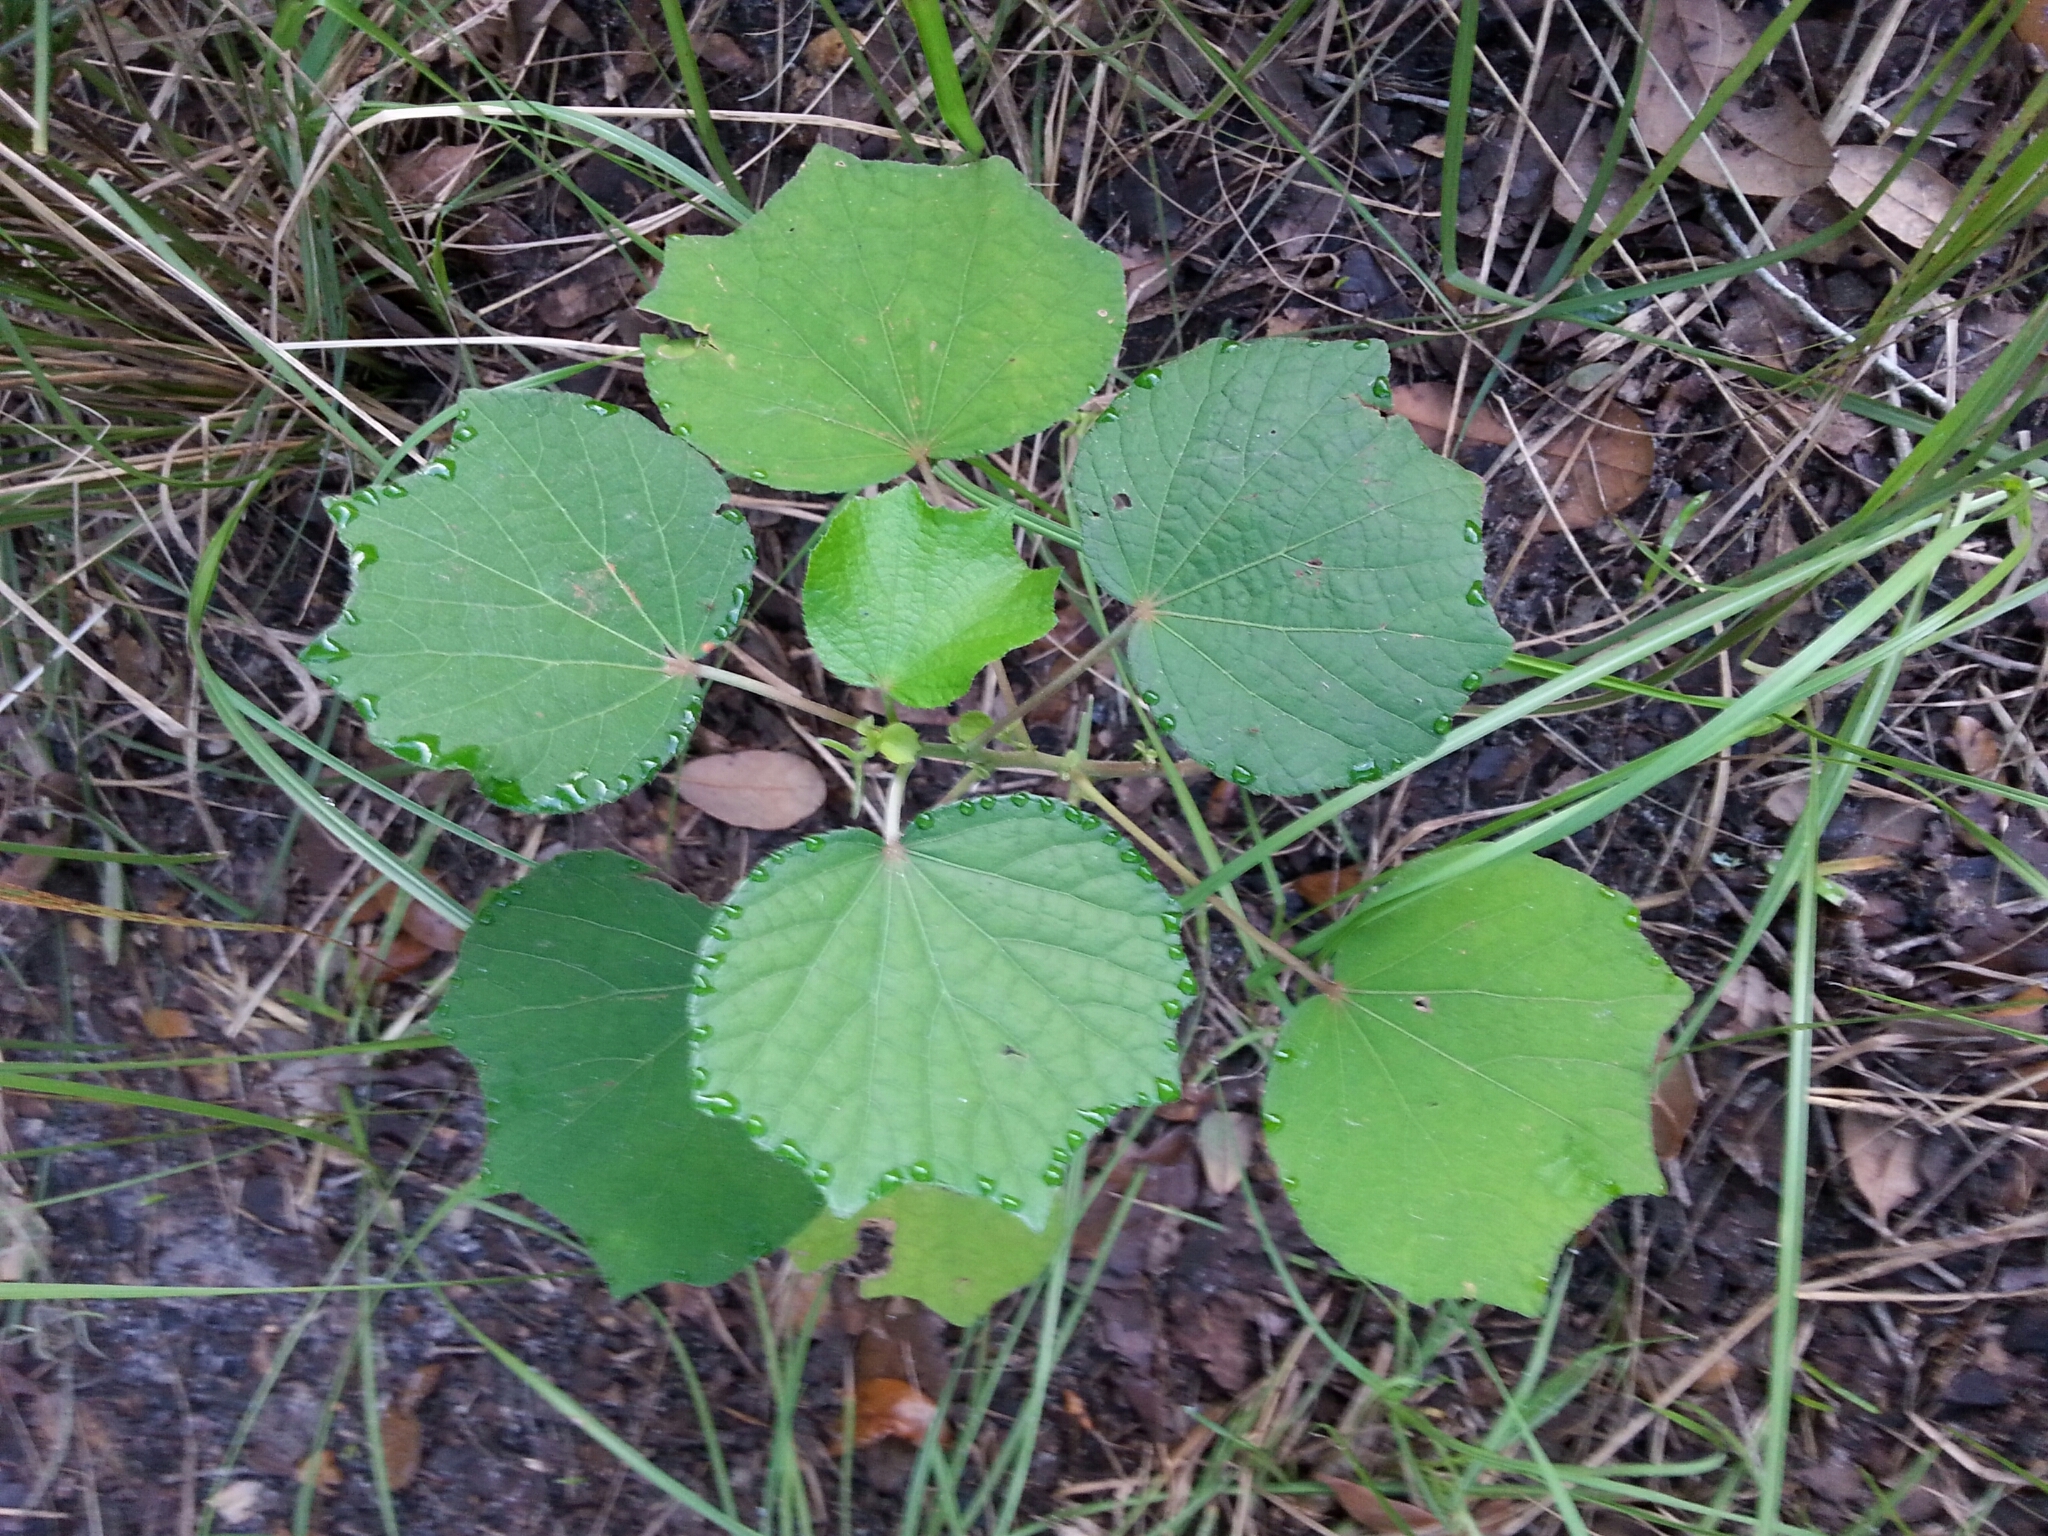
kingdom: Plantae
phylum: Tracheophyta
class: Magnoliopsida
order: Malvales
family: Malvaceae
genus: Urena
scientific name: Urena lobata
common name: Caesarweed
